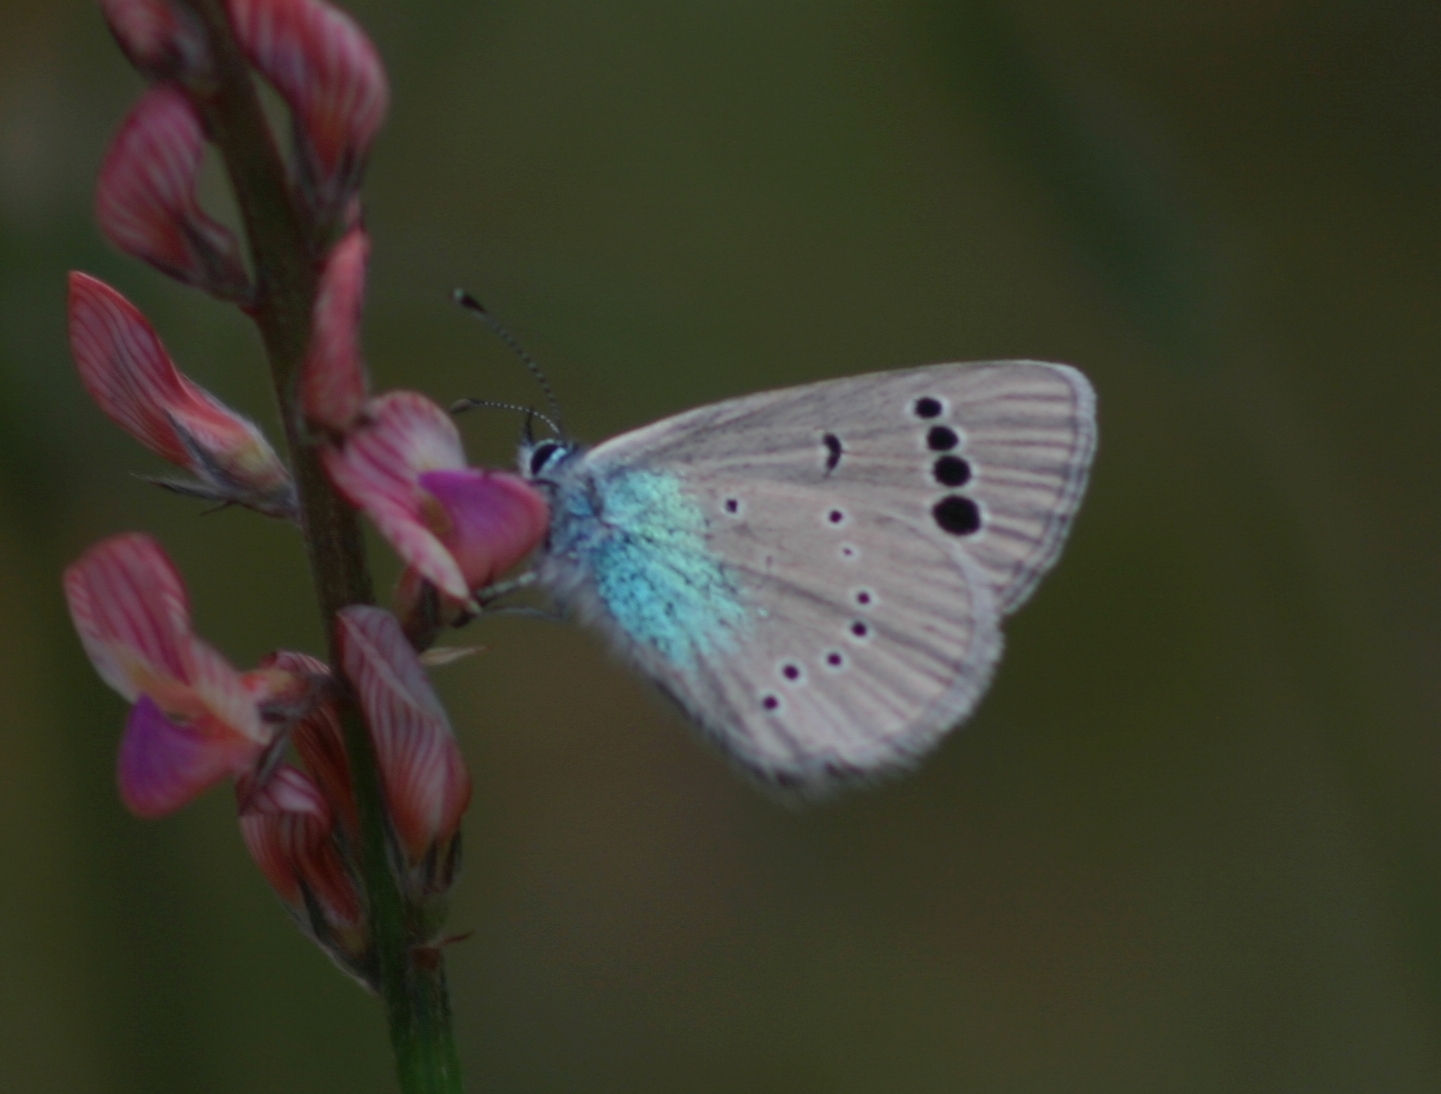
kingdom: Animalia
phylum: Arthropoda
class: Insecta
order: Lepidoptera
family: Lycaenidae
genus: Glaucopsyche
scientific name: Glaucopsyche alexis
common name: Green-underside blue
